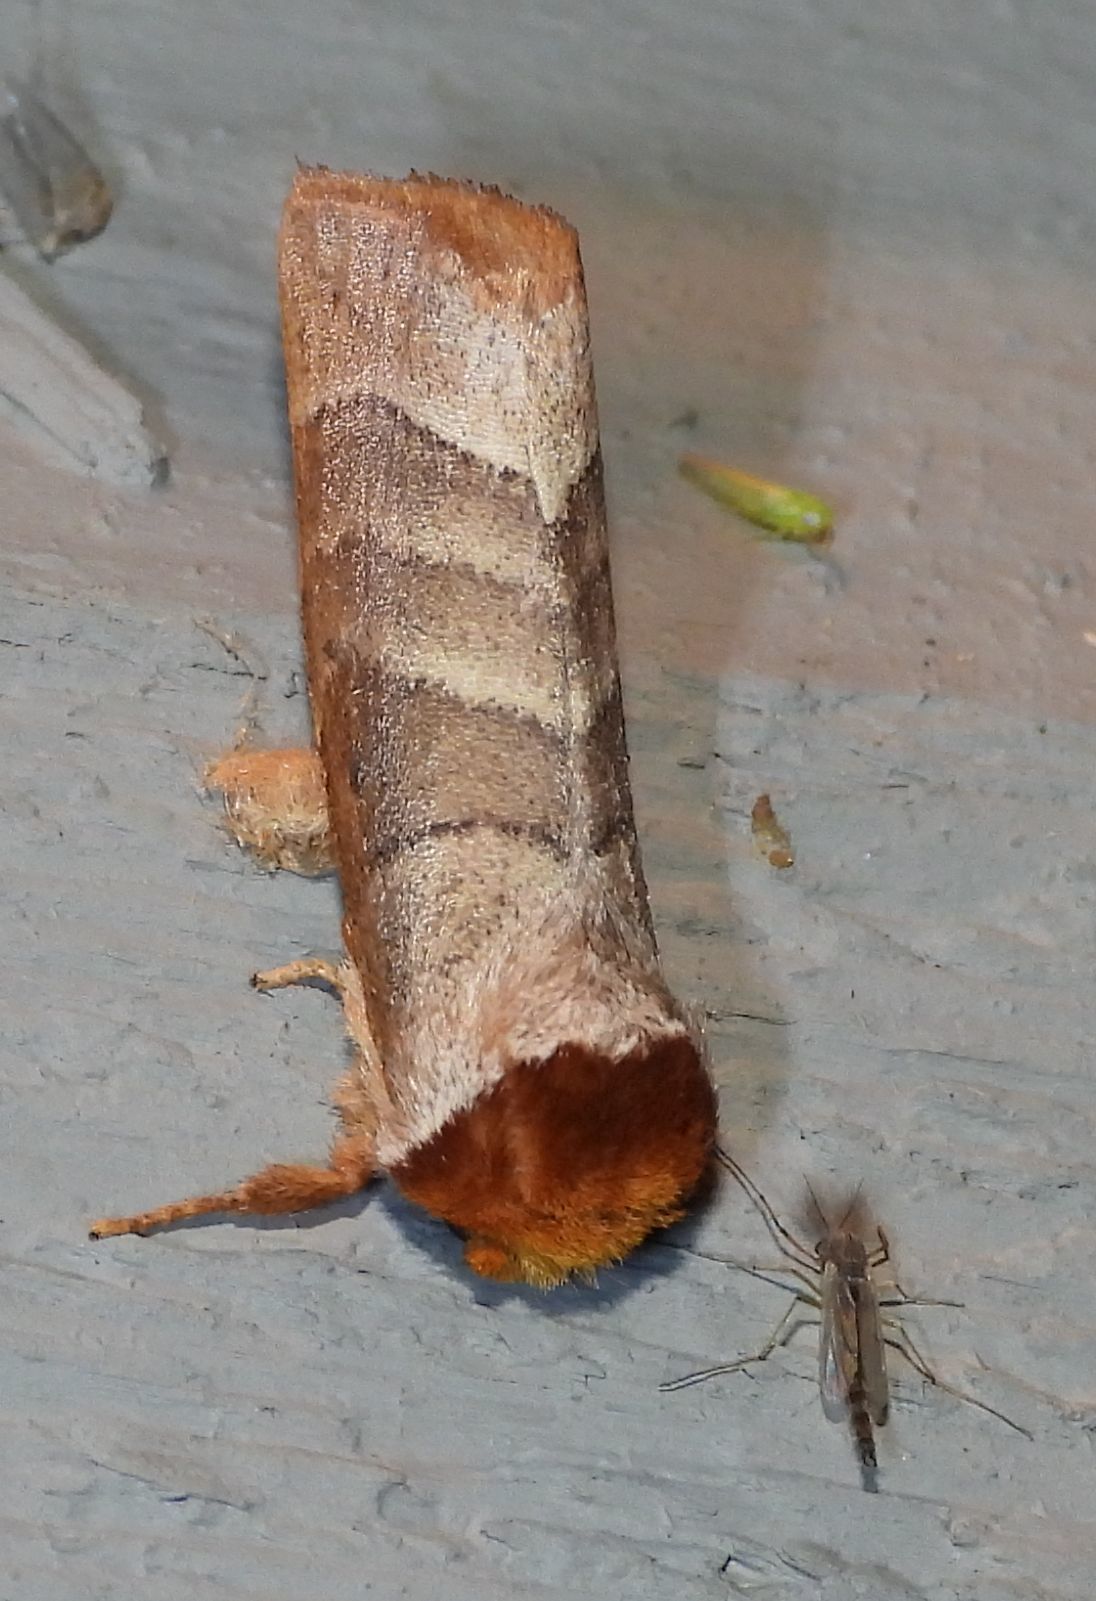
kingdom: Animalia
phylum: Arthropoda
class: Insecta
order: Lepidoptera
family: Notodontidae
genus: Datana
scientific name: Datana integerrima
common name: Walnut caterpillar
